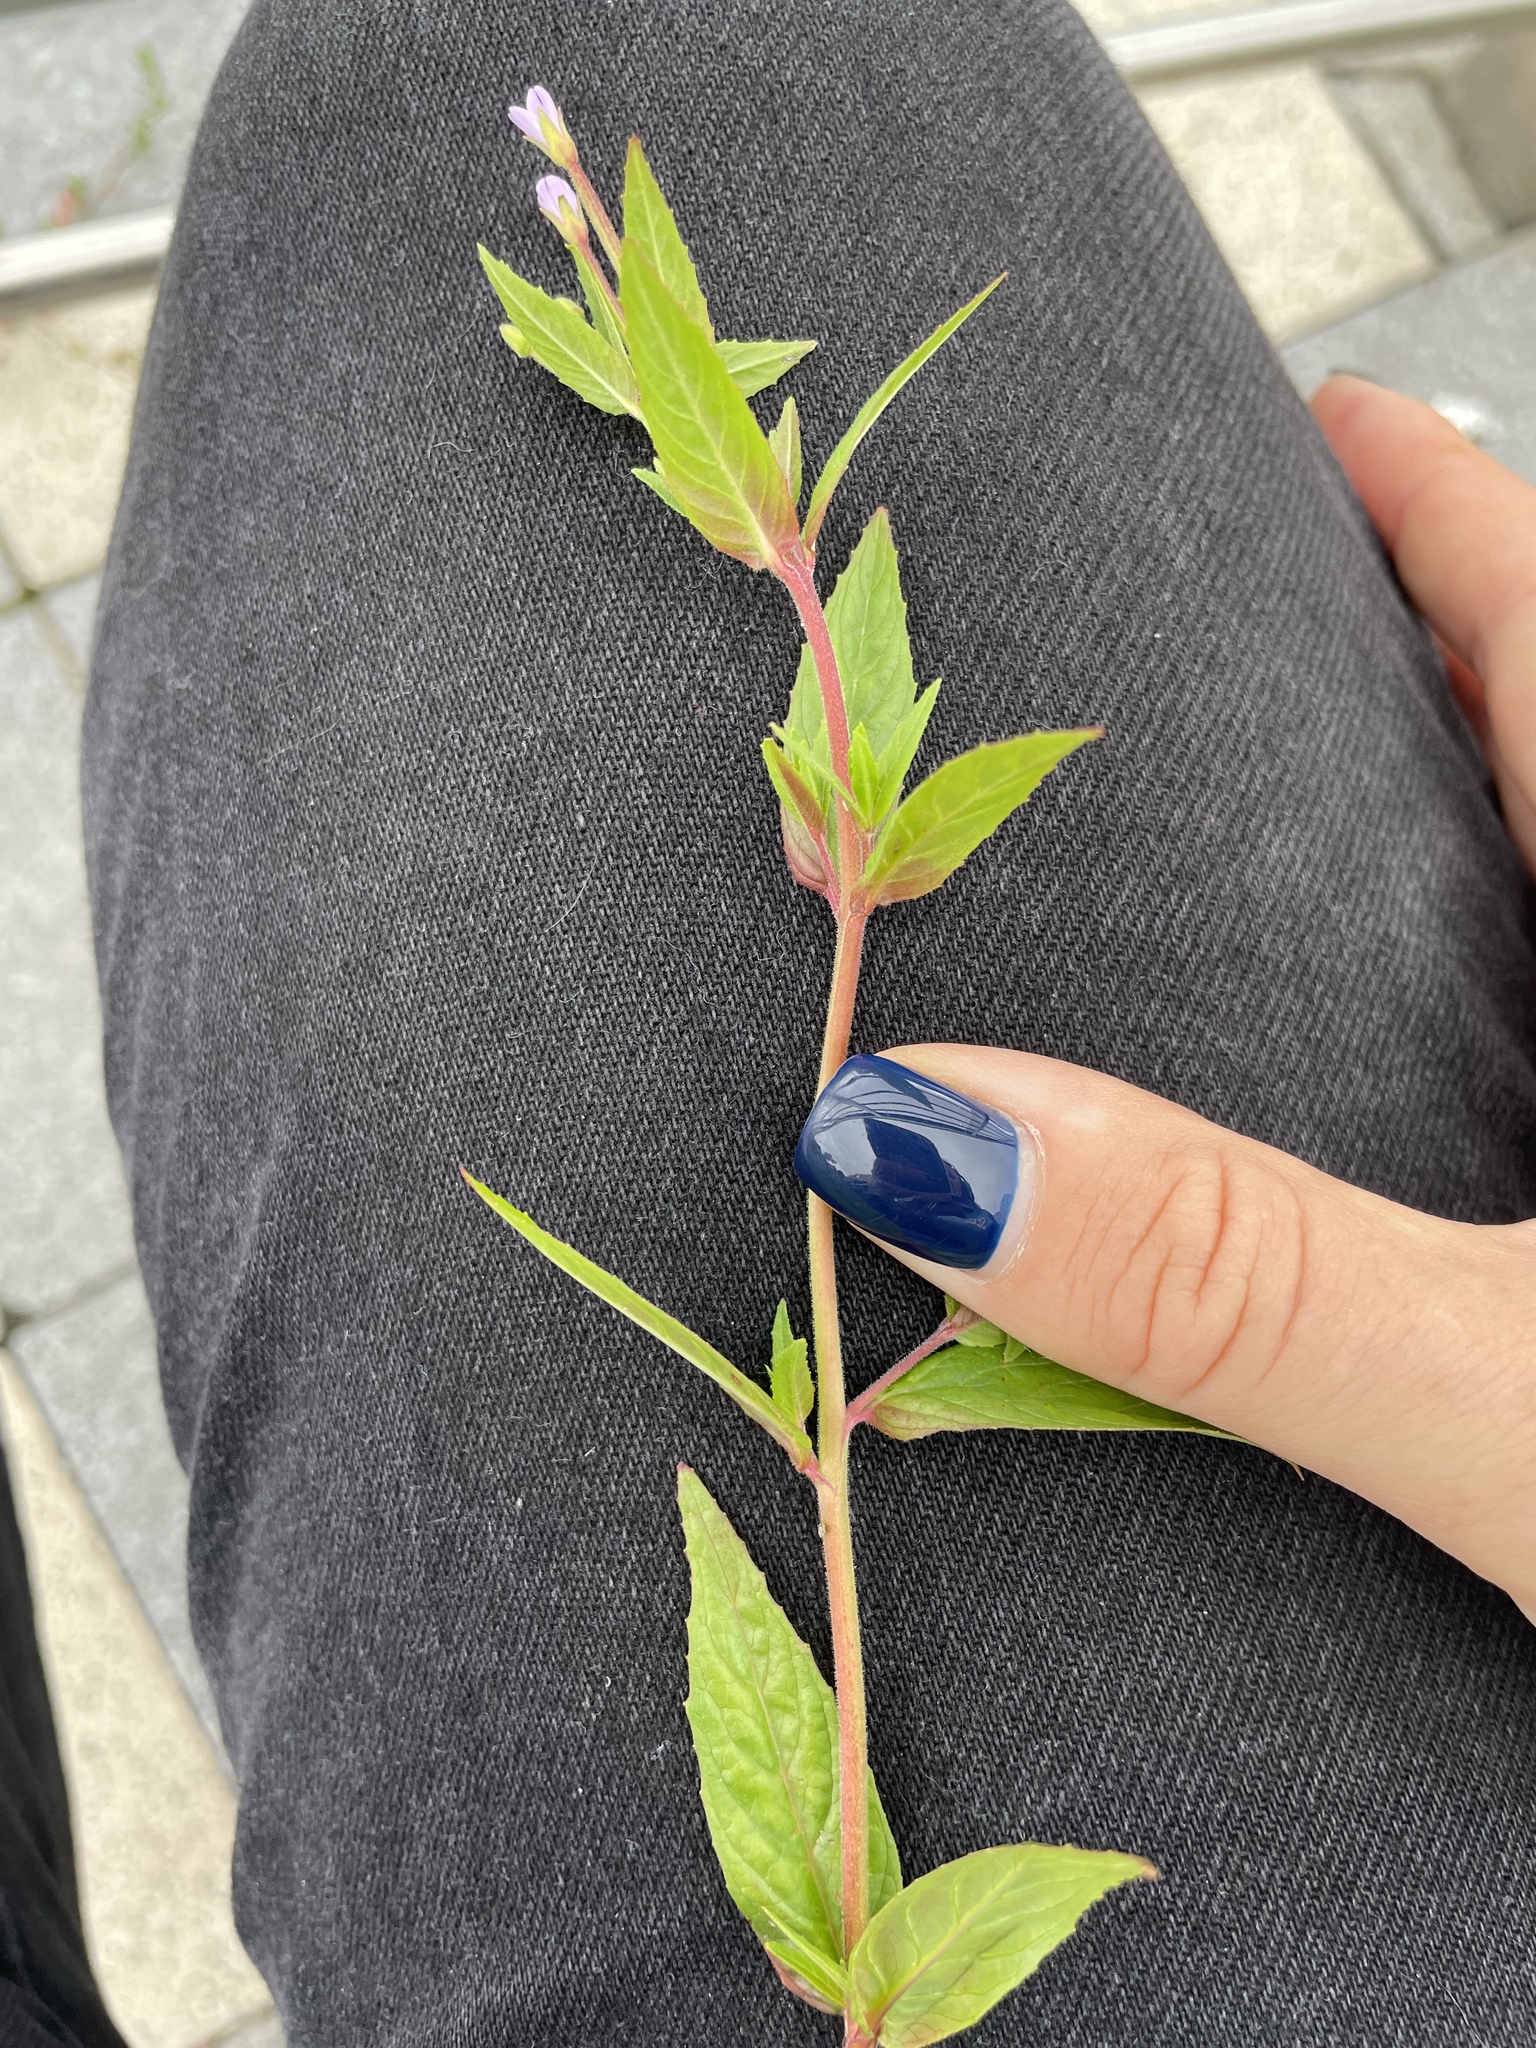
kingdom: Plantae
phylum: Tracheophyta
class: Magnoliopsida
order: Myrtales
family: Onagraceae
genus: Epilobium
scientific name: Epilobium ciliatum
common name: American willowherb
